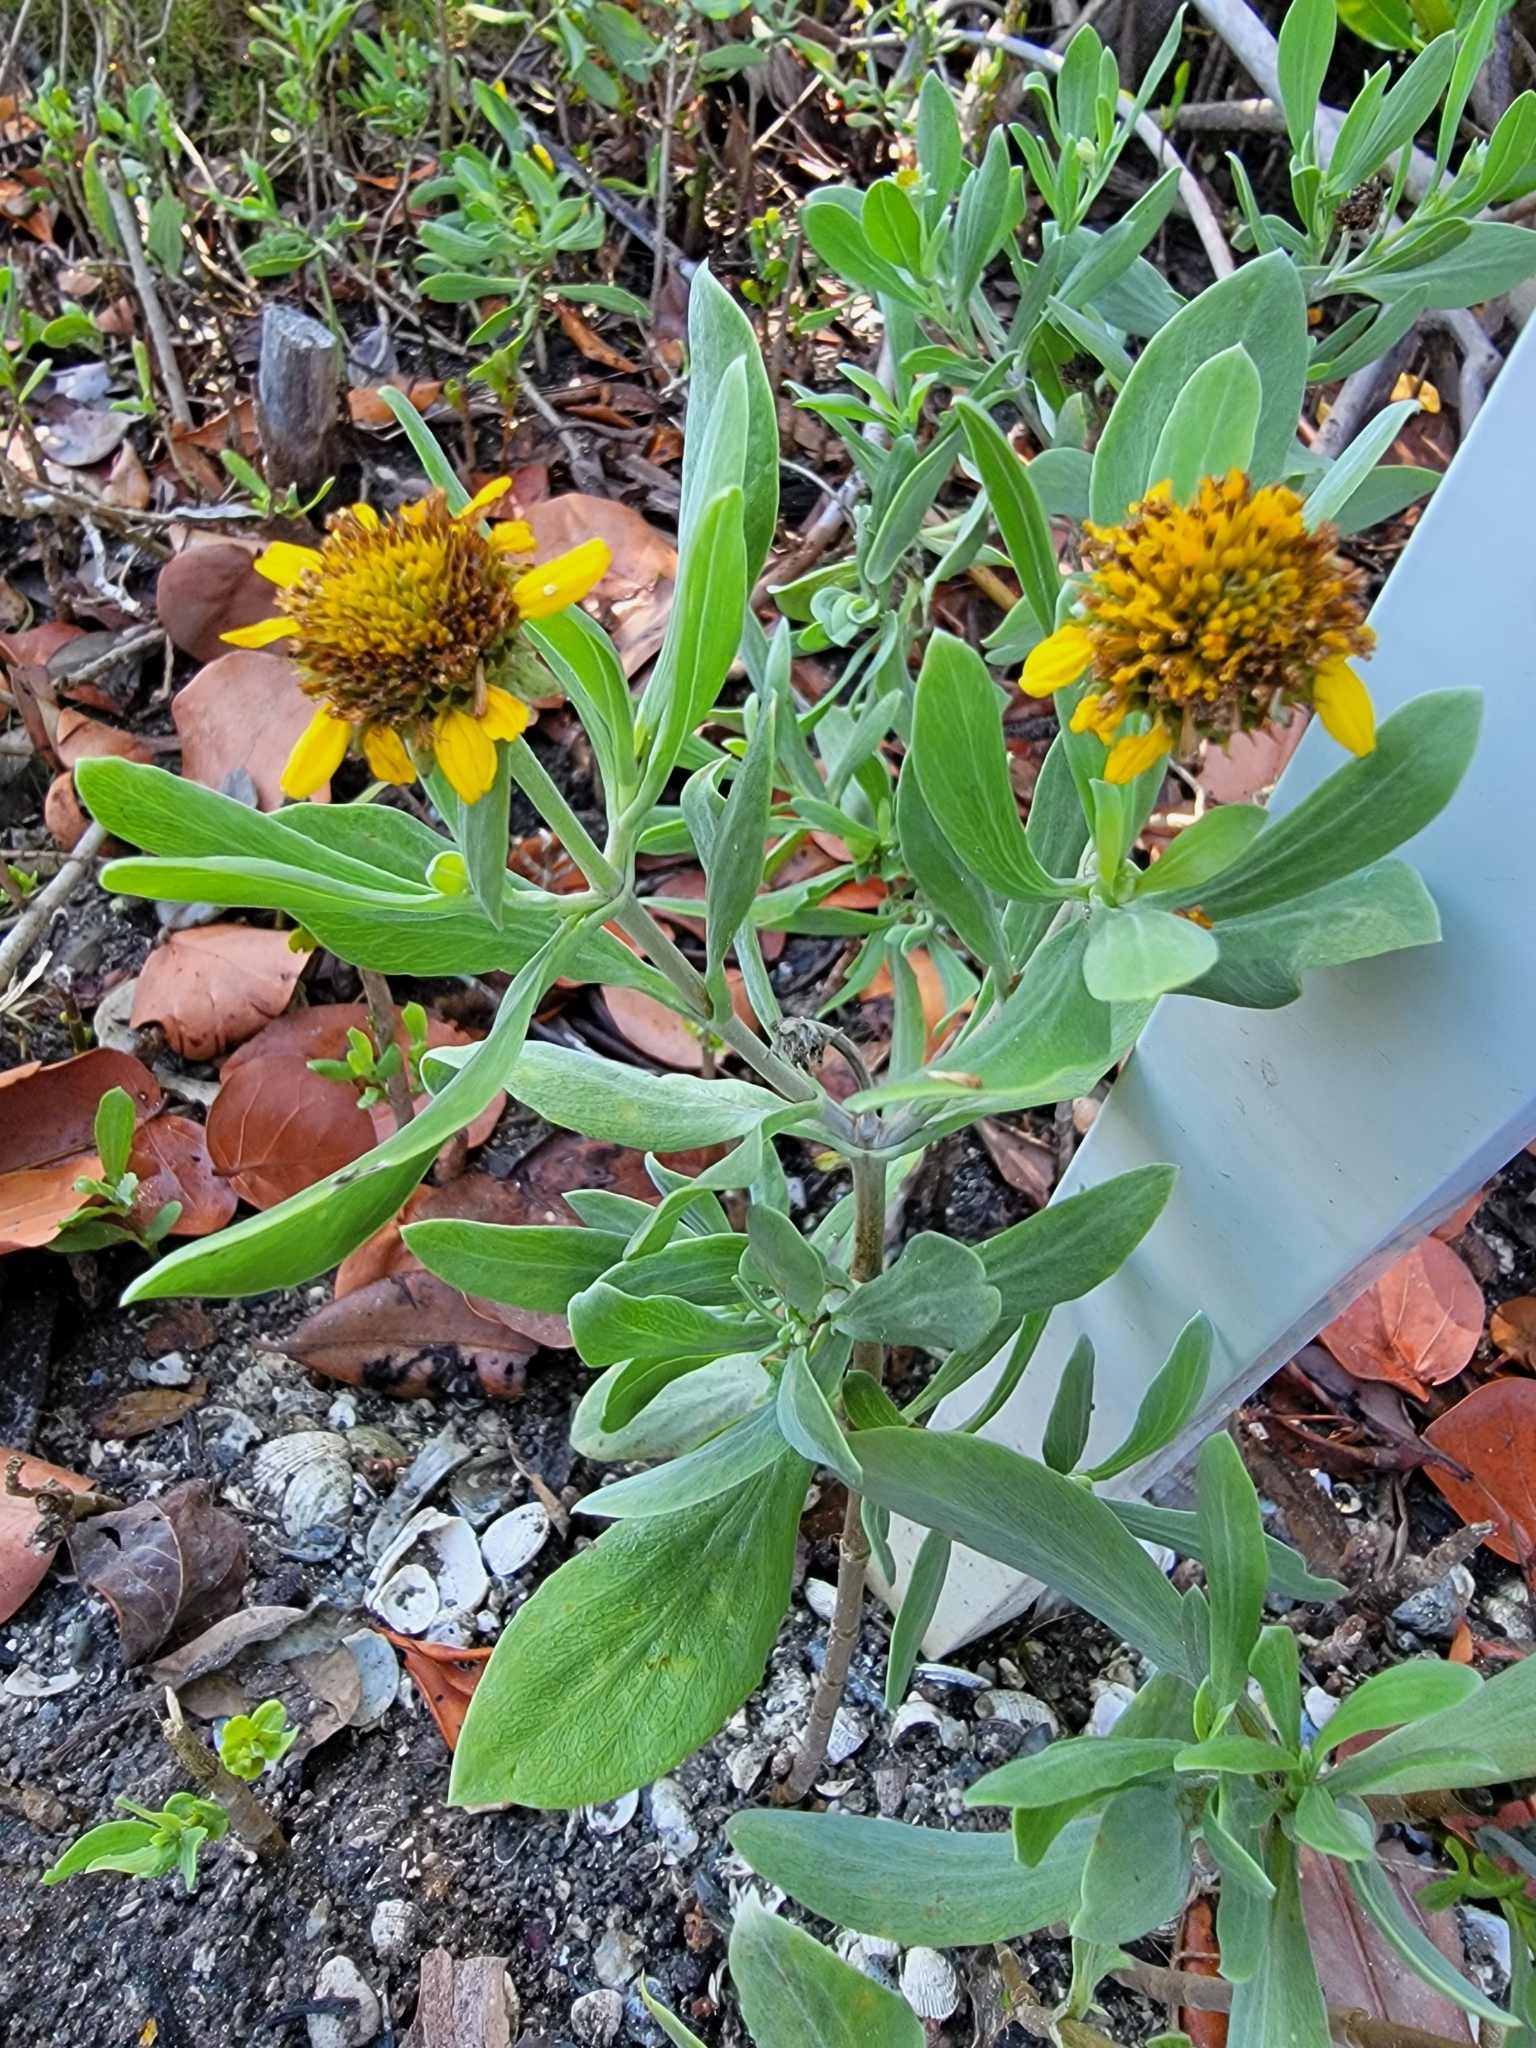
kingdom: Plantae
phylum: Tracheophyta
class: Magnoliopsida
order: Asterales
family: Asteraceae
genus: Borrichia
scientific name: Borrichia frutescens
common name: Sea oxeye
